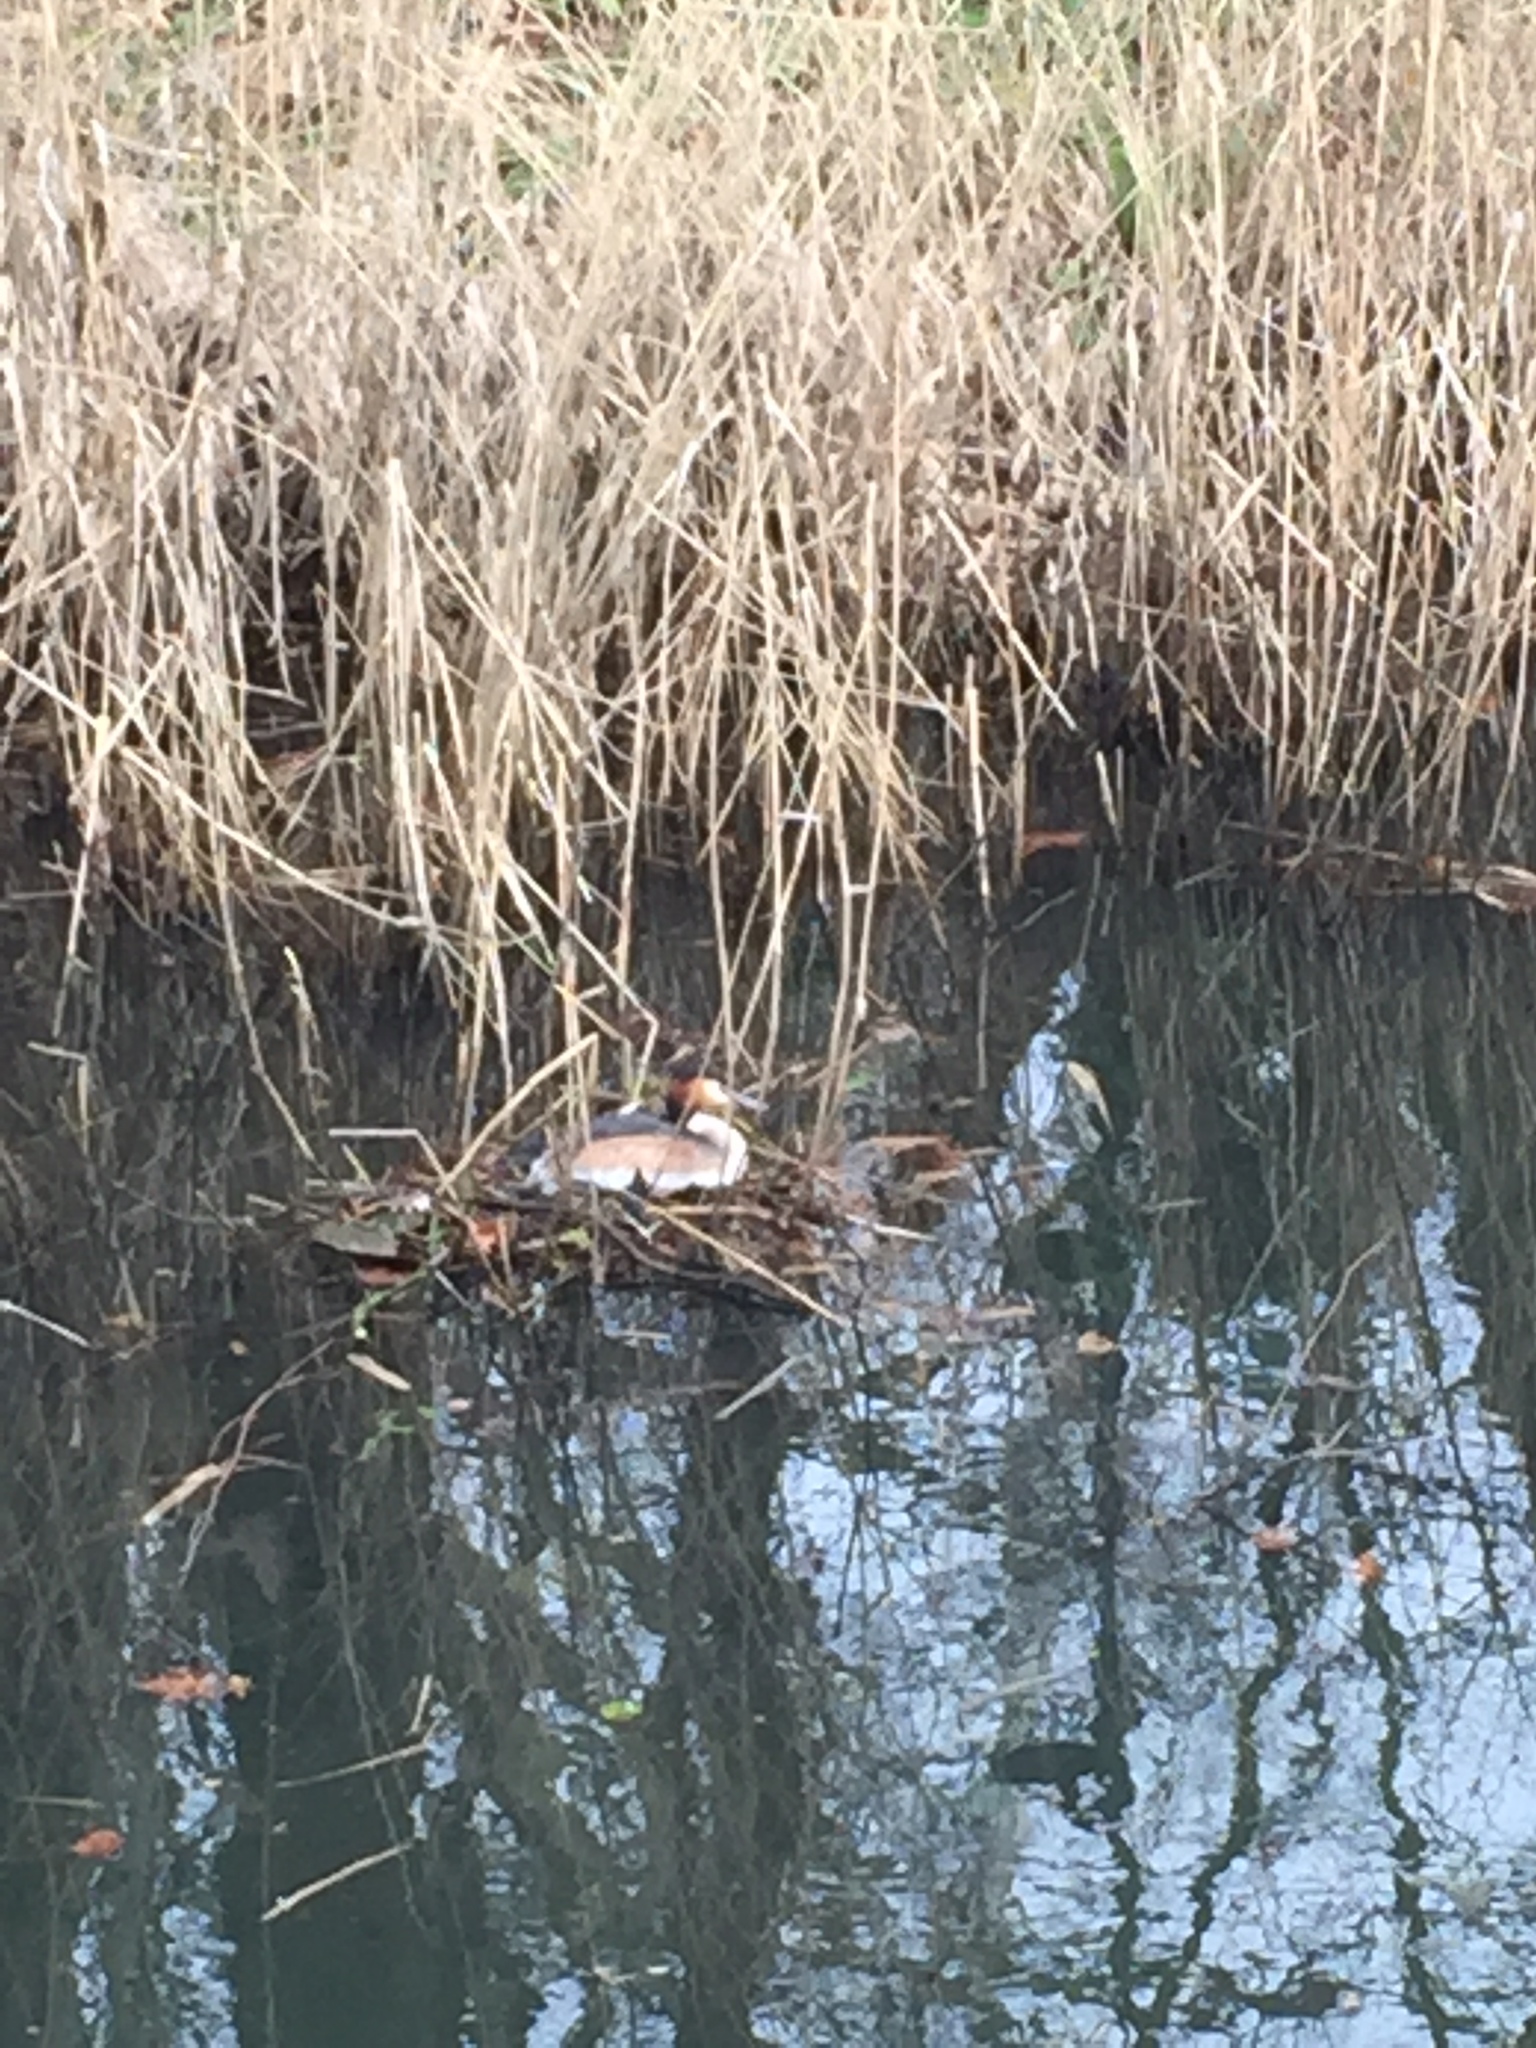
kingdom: Animalia
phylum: Chordata
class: Aves
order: Podicipediformes
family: Podicipedidae
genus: Podiceps
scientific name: Podiceps cristatus
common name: Great crested grebe
